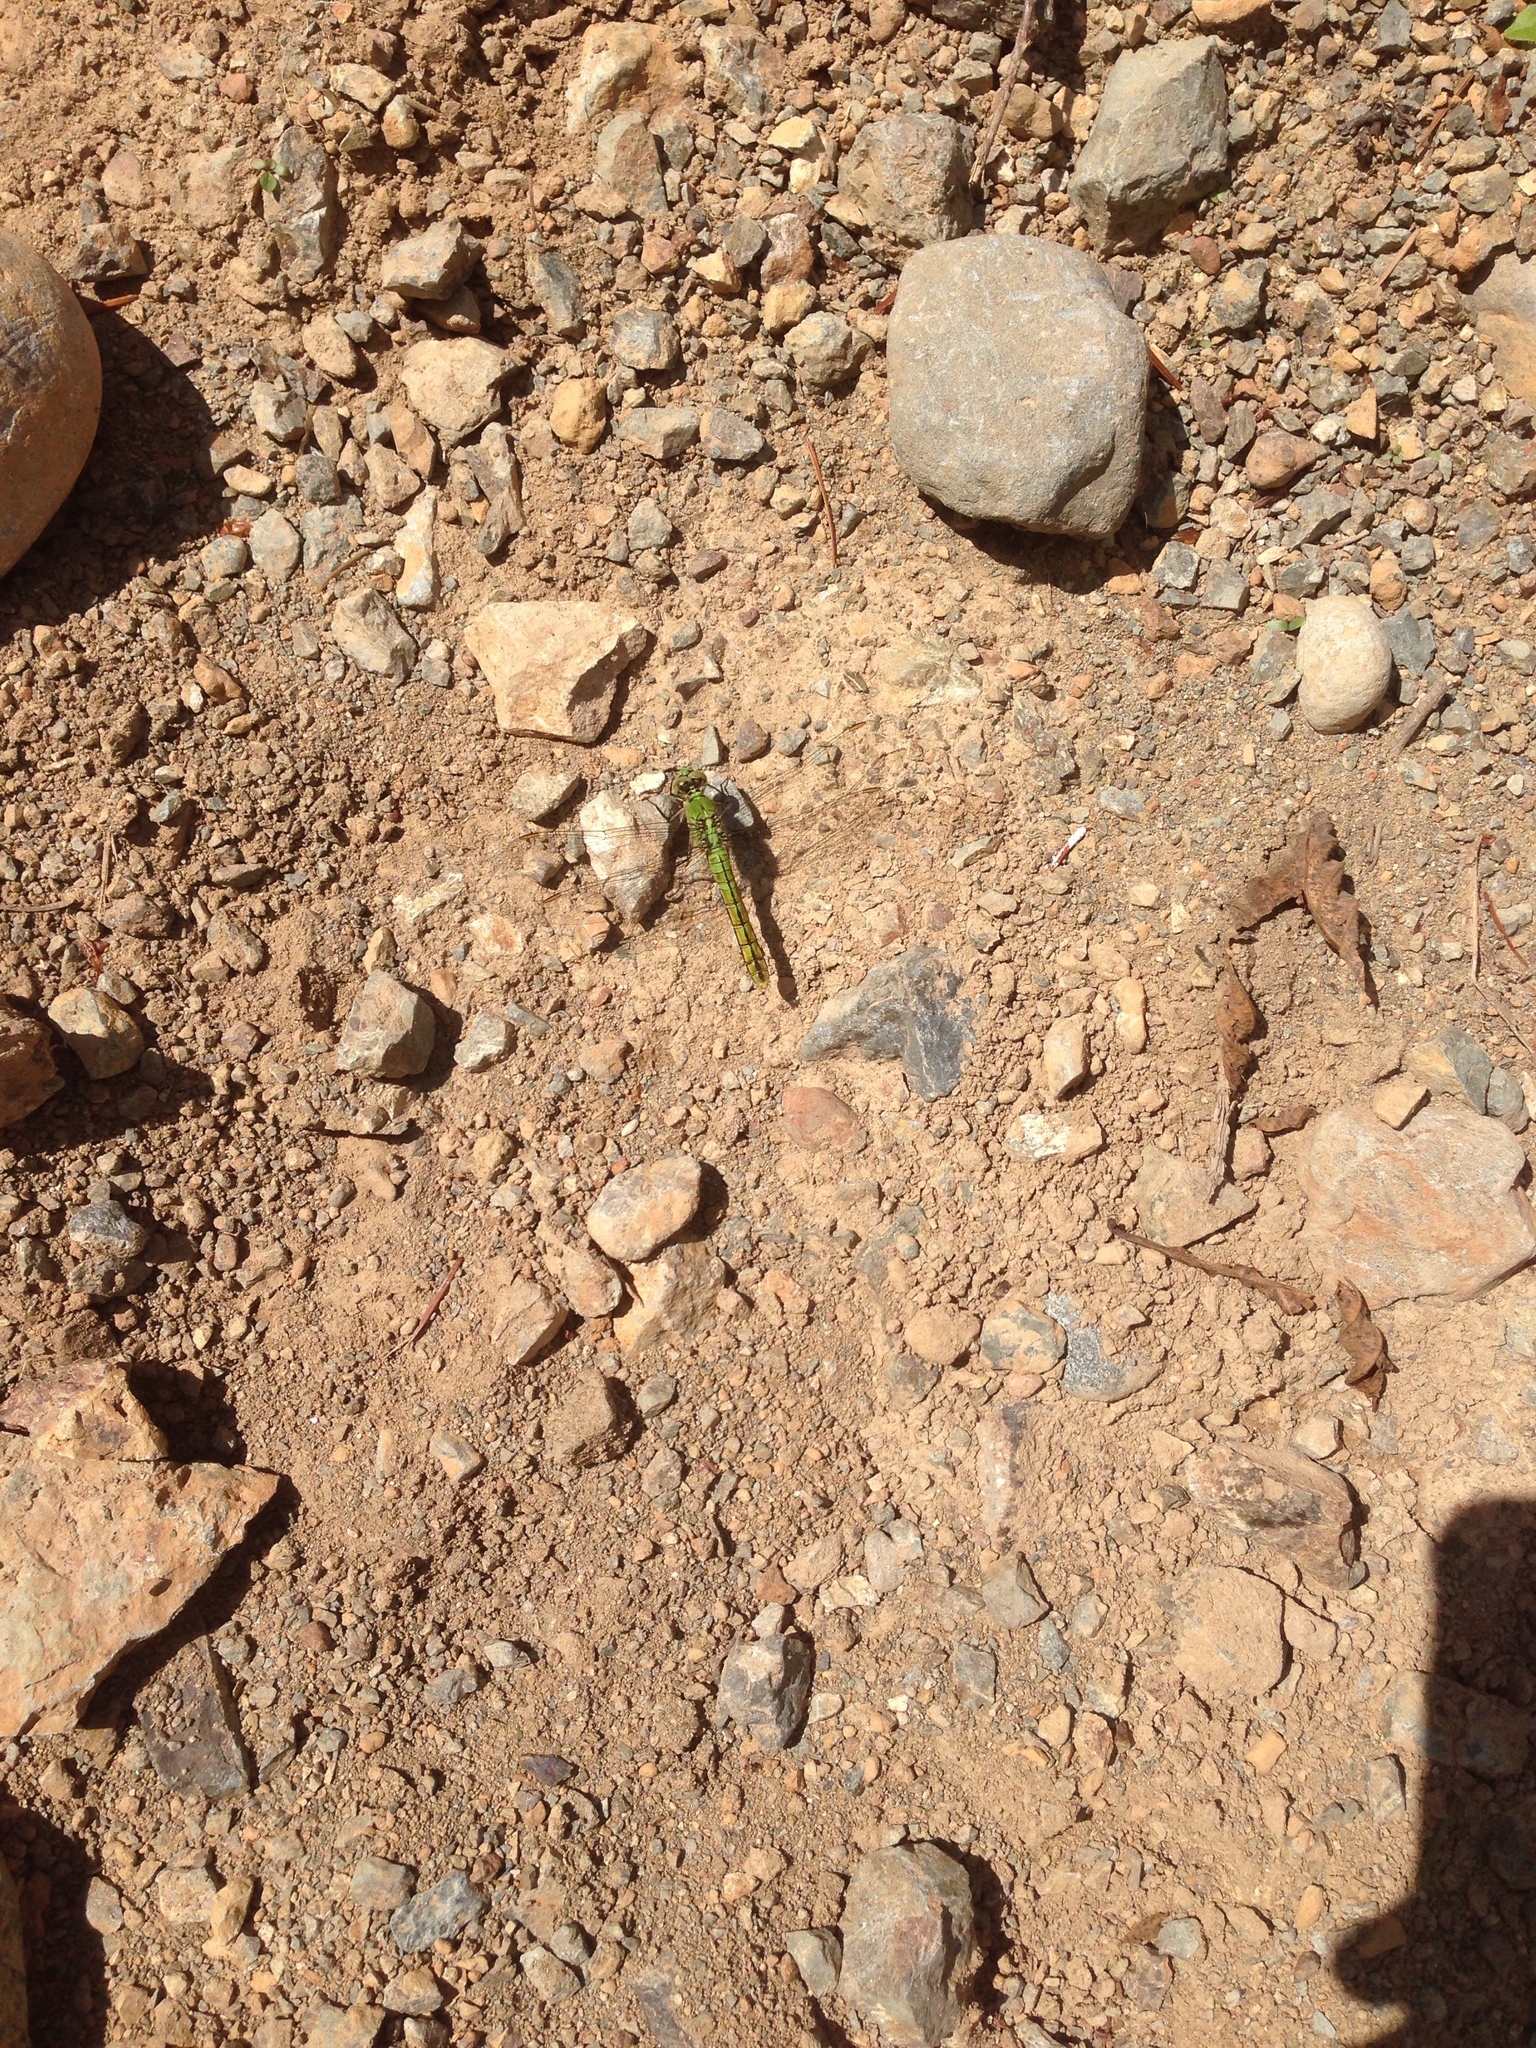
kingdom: Animalia
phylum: Arthropoda
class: Insecta
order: Odonata
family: Libellulidae
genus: Erythemis
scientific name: Erythemis collocata
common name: Western pondhawk
